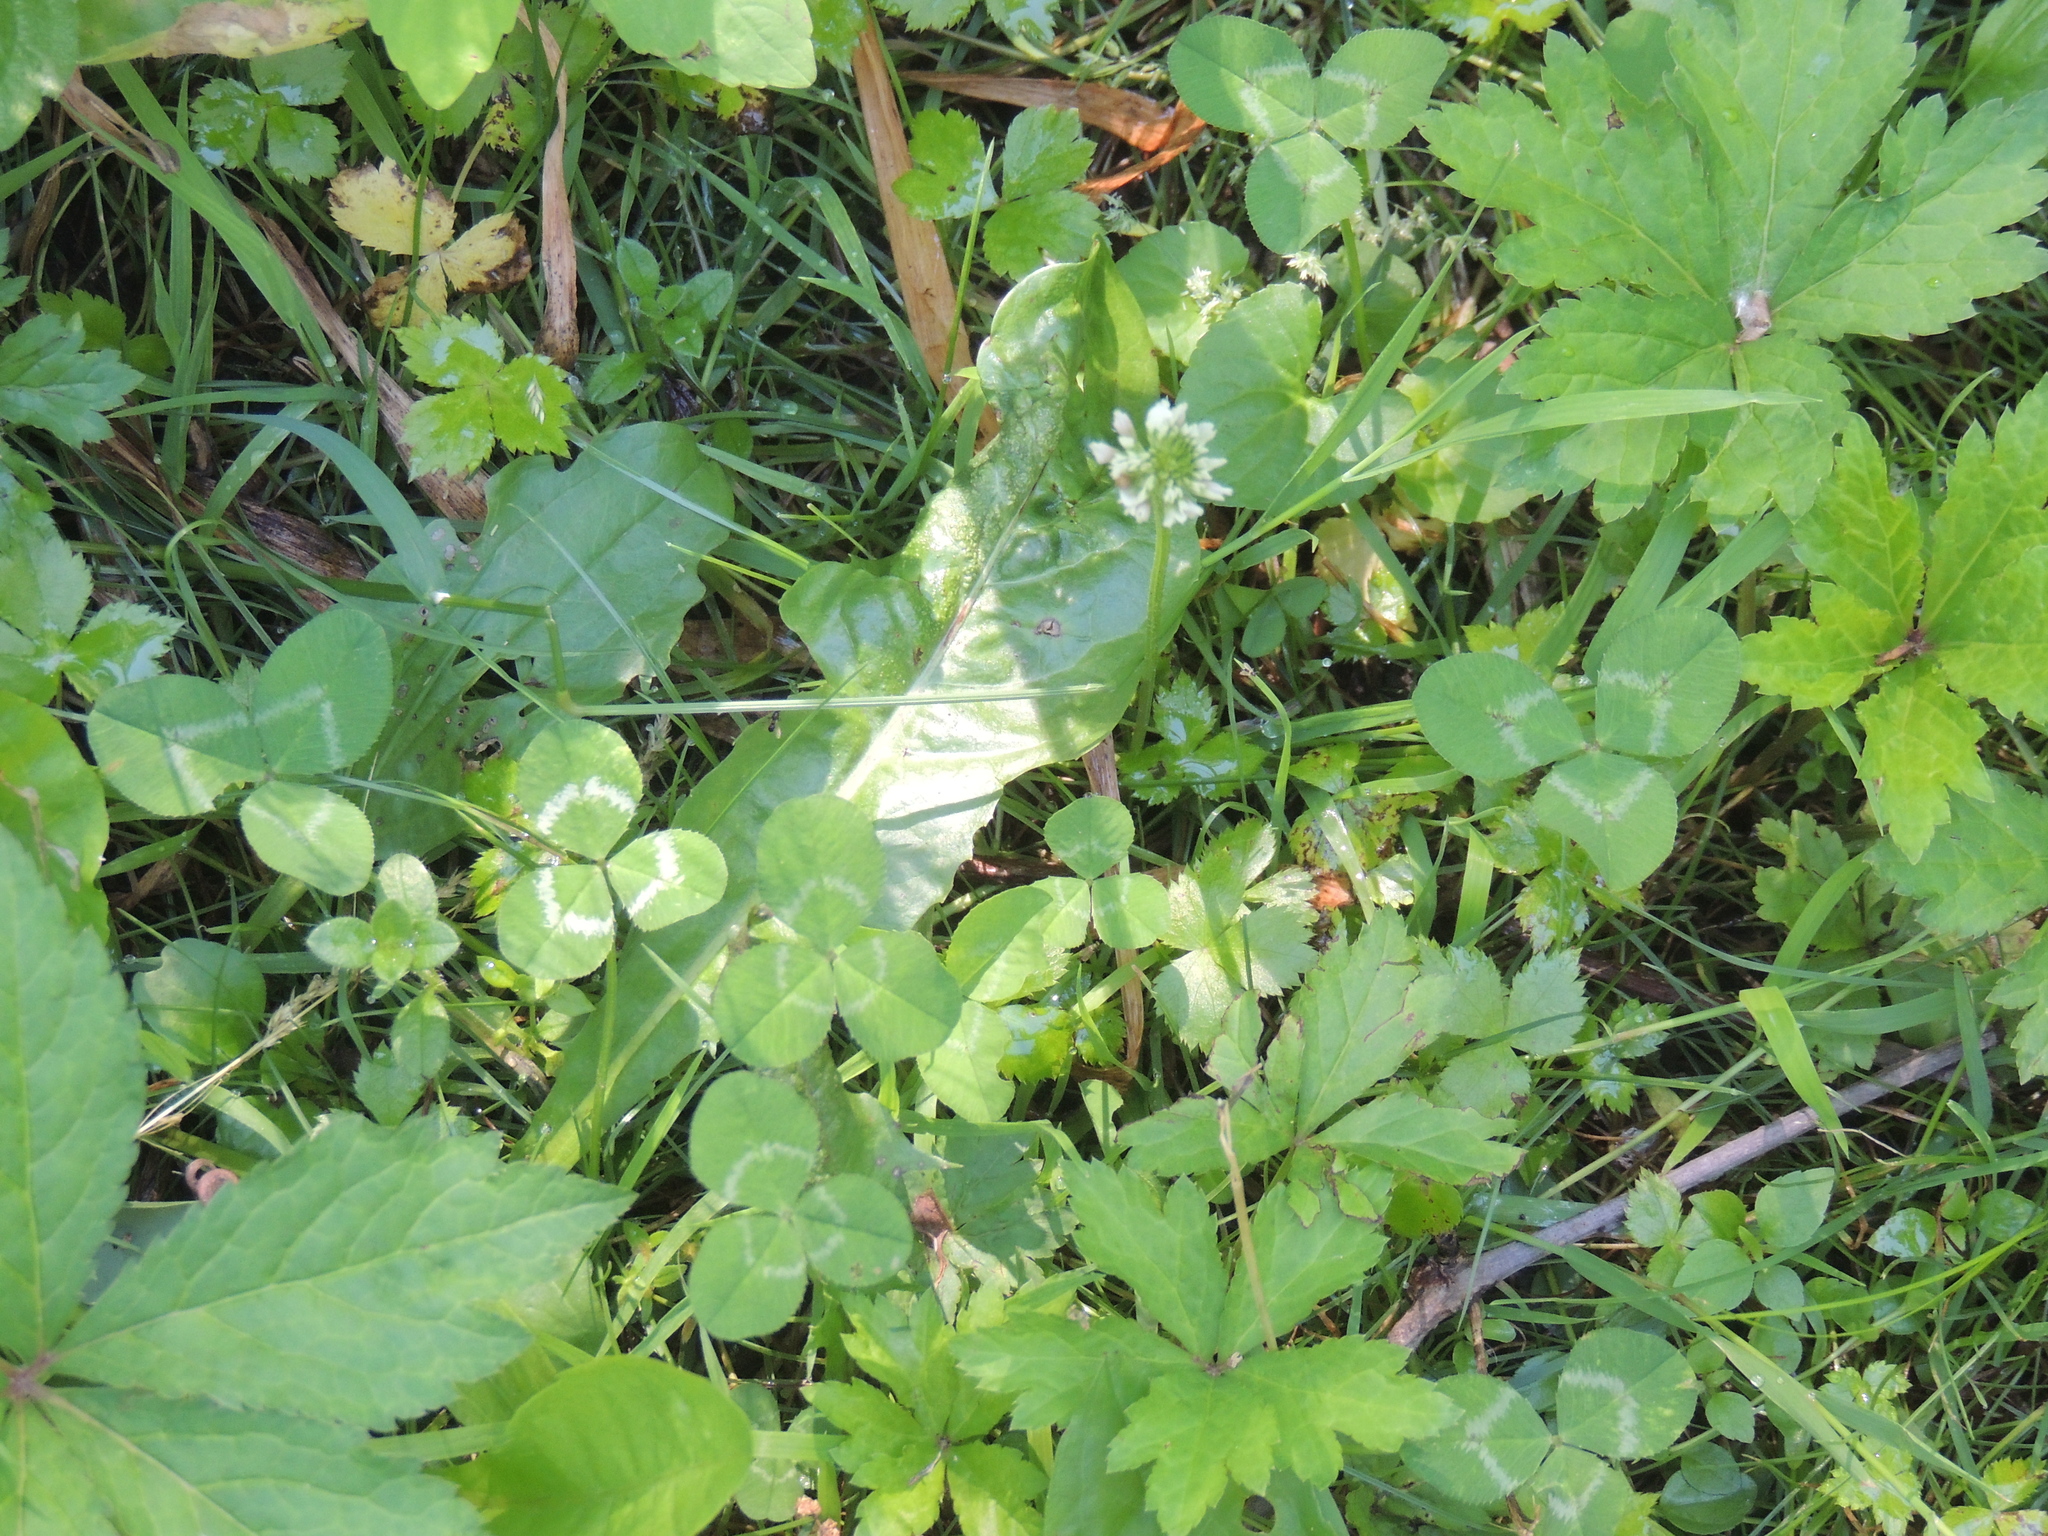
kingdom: Plantae
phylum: Tracheophyta
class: Magnoliopsida
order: Fabales
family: Fabaceae
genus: Trifolium
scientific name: Trifolium repens
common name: White clover
